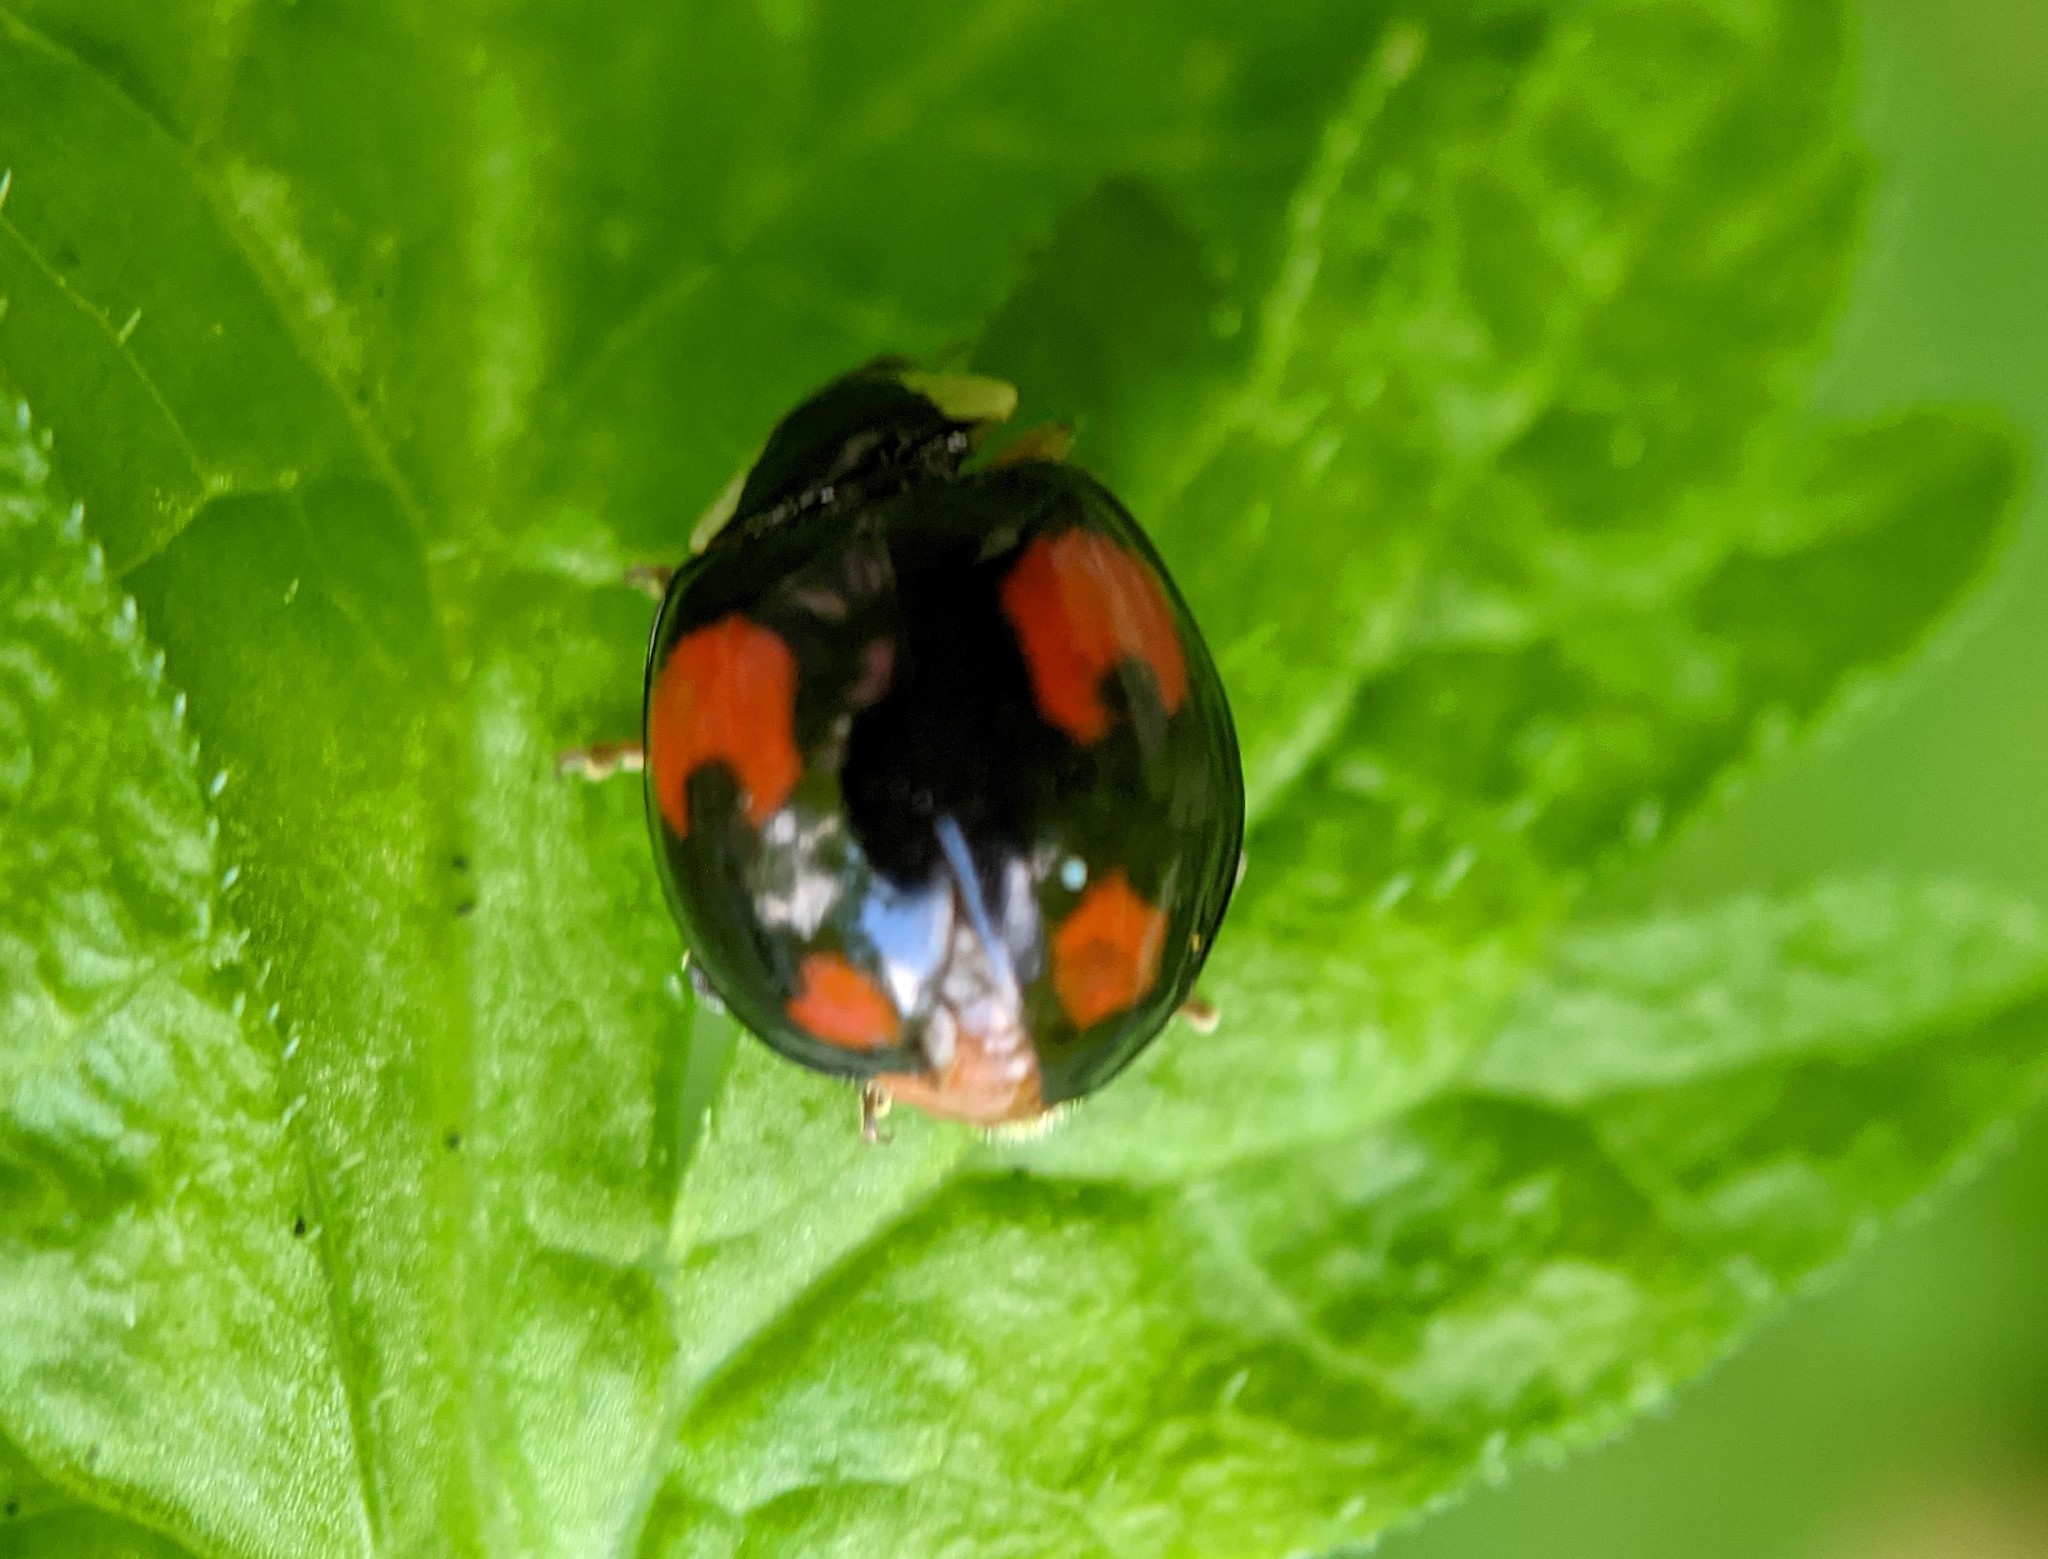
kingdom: Animalia
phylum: Arthropoda
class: Insecta
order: Coleoptera
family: Coccinellidae
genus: Harmonia
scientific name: Harmonia axyridis
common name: Harlequin ladybird
